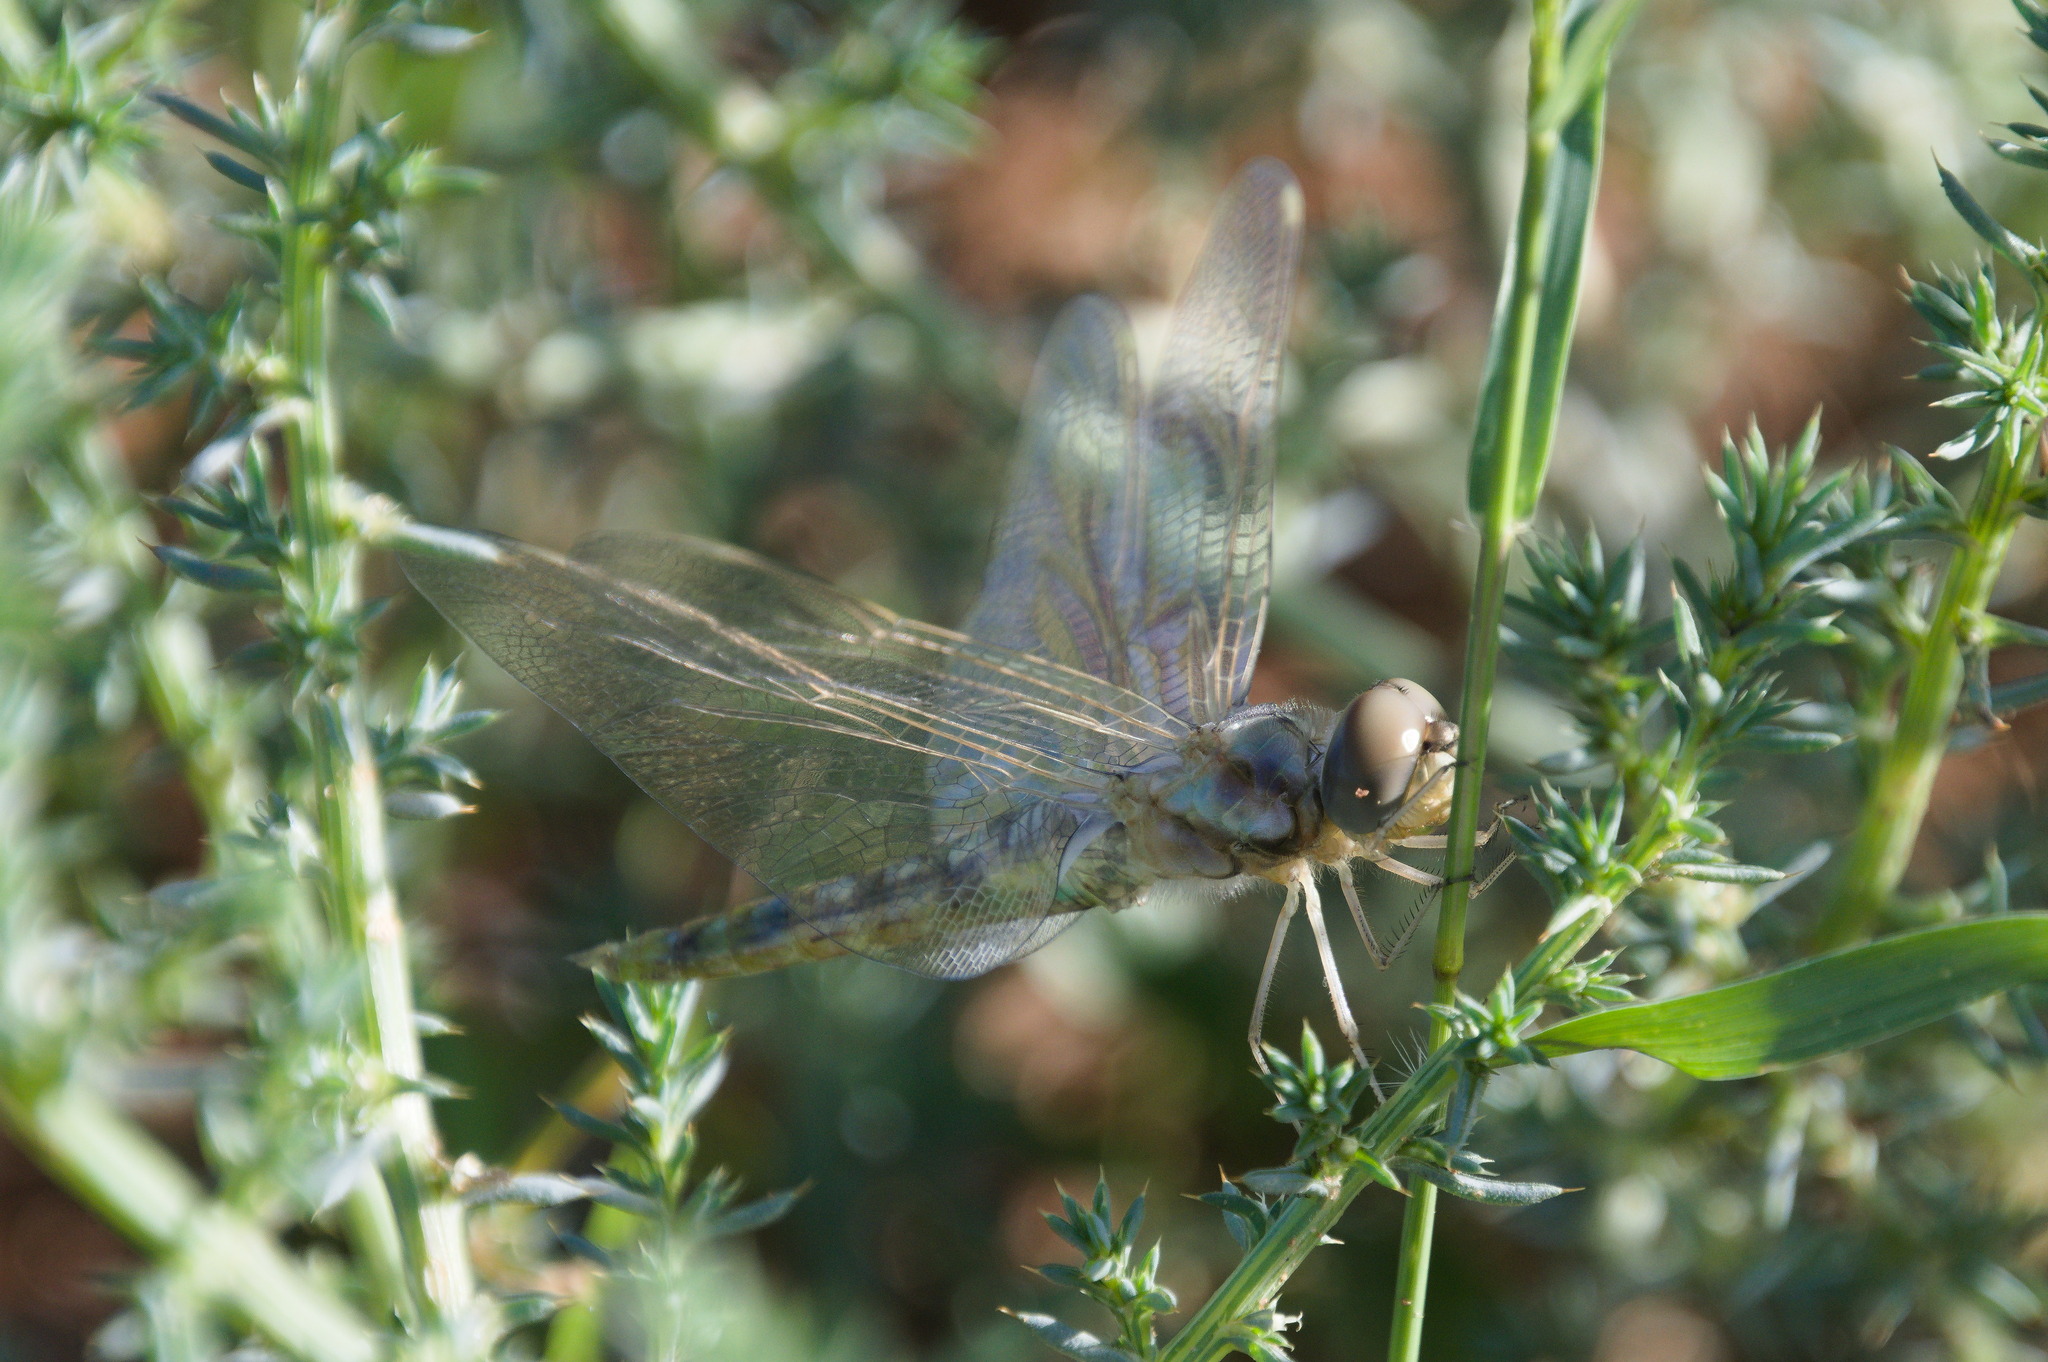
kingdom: Animalia
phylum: Arthropoda
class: Insecta
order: Odonata
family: Libellulidae
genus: Sympetrum
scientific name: Sympetrum corruptum
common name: Variegated meadowhawk
